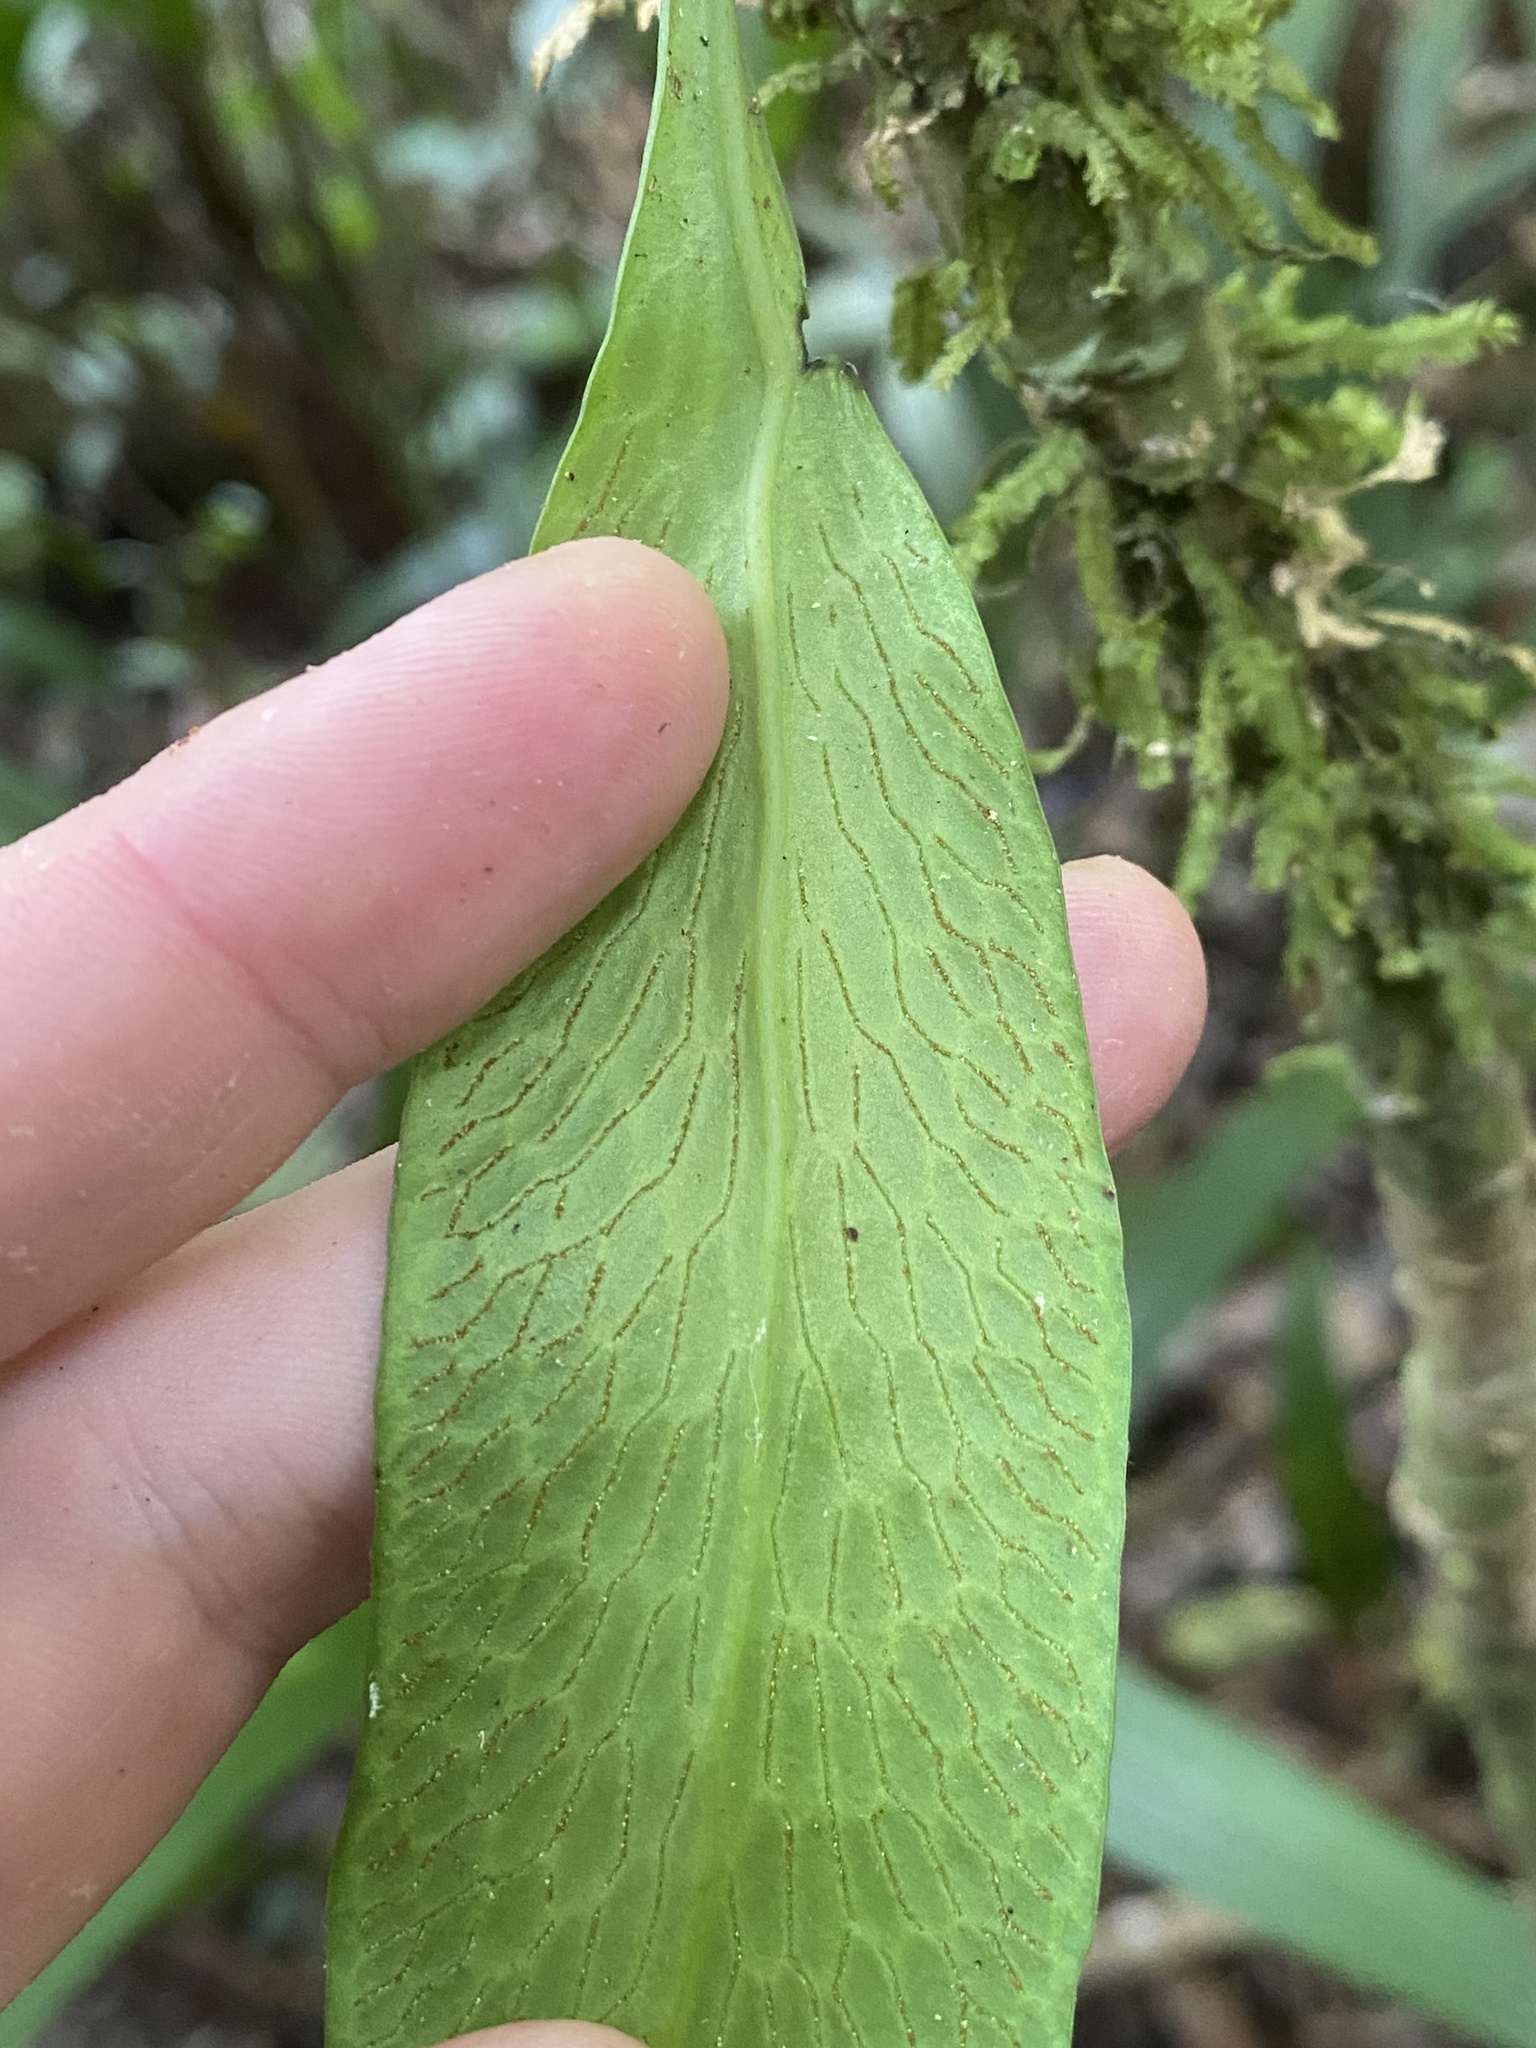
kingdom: Plantae
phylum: Tracheophyta
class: Polypodiopsida
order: Polypodiales
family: Pteridaceae
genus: Polytaenium
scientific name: Polytaenium guayanense
